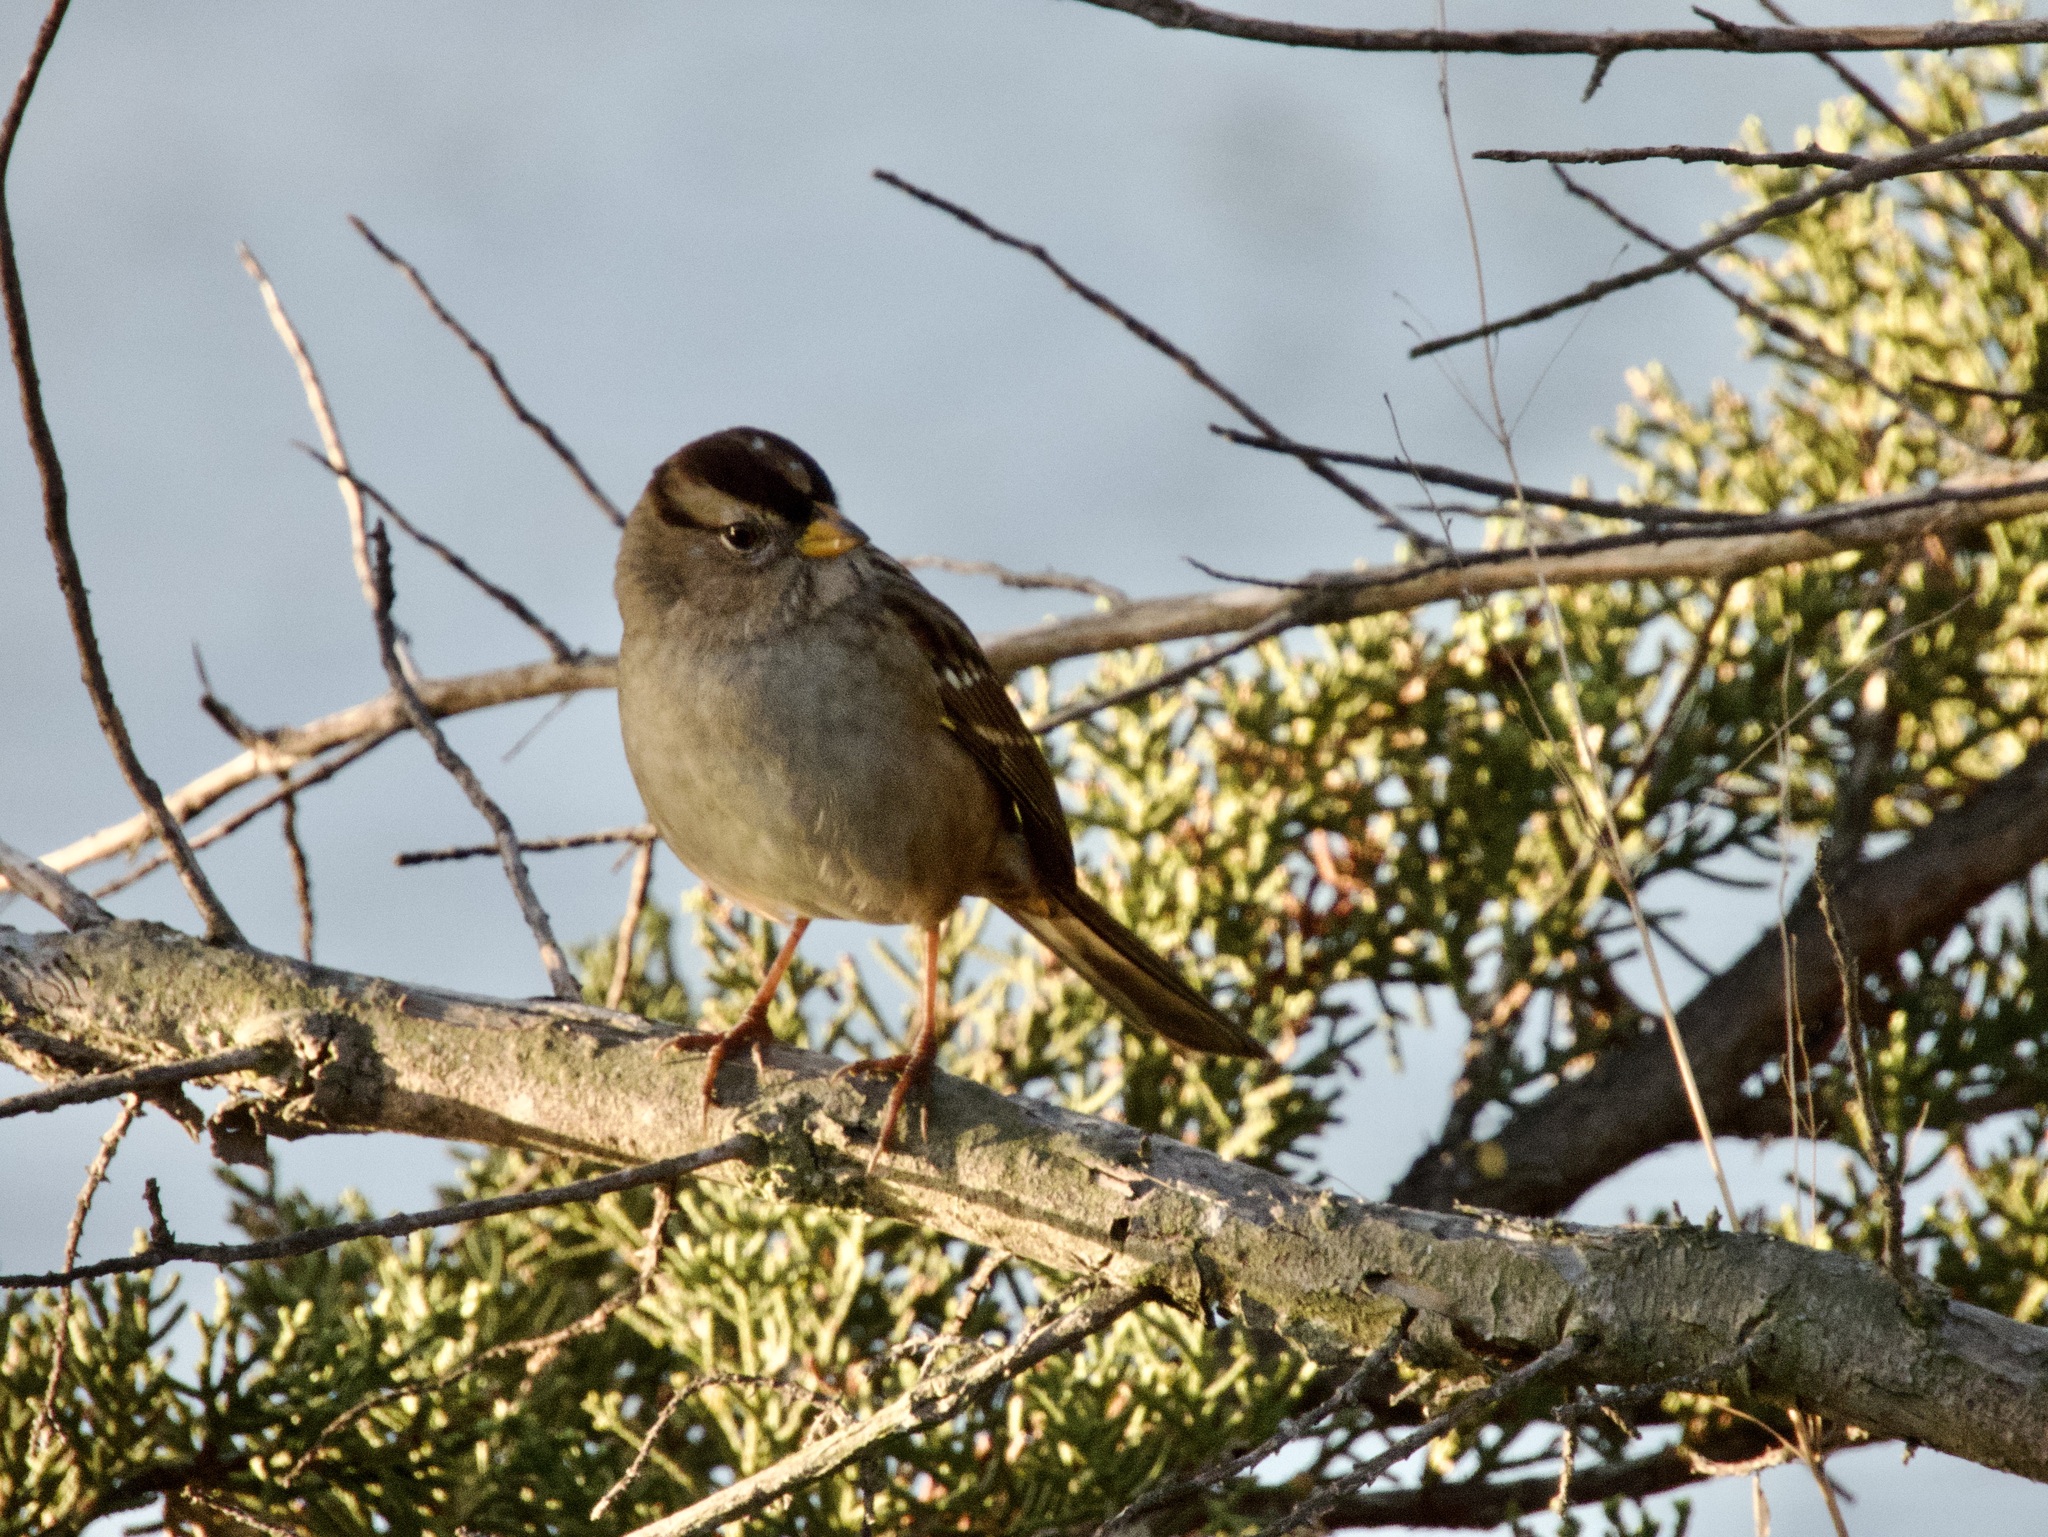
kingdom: Animalia
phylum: Chordata
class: Aves
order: Passeriformes
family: Passerellidae
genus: Zonotrichia
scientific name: Zonotrichia leucophrys
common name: White-crowned sparrow
